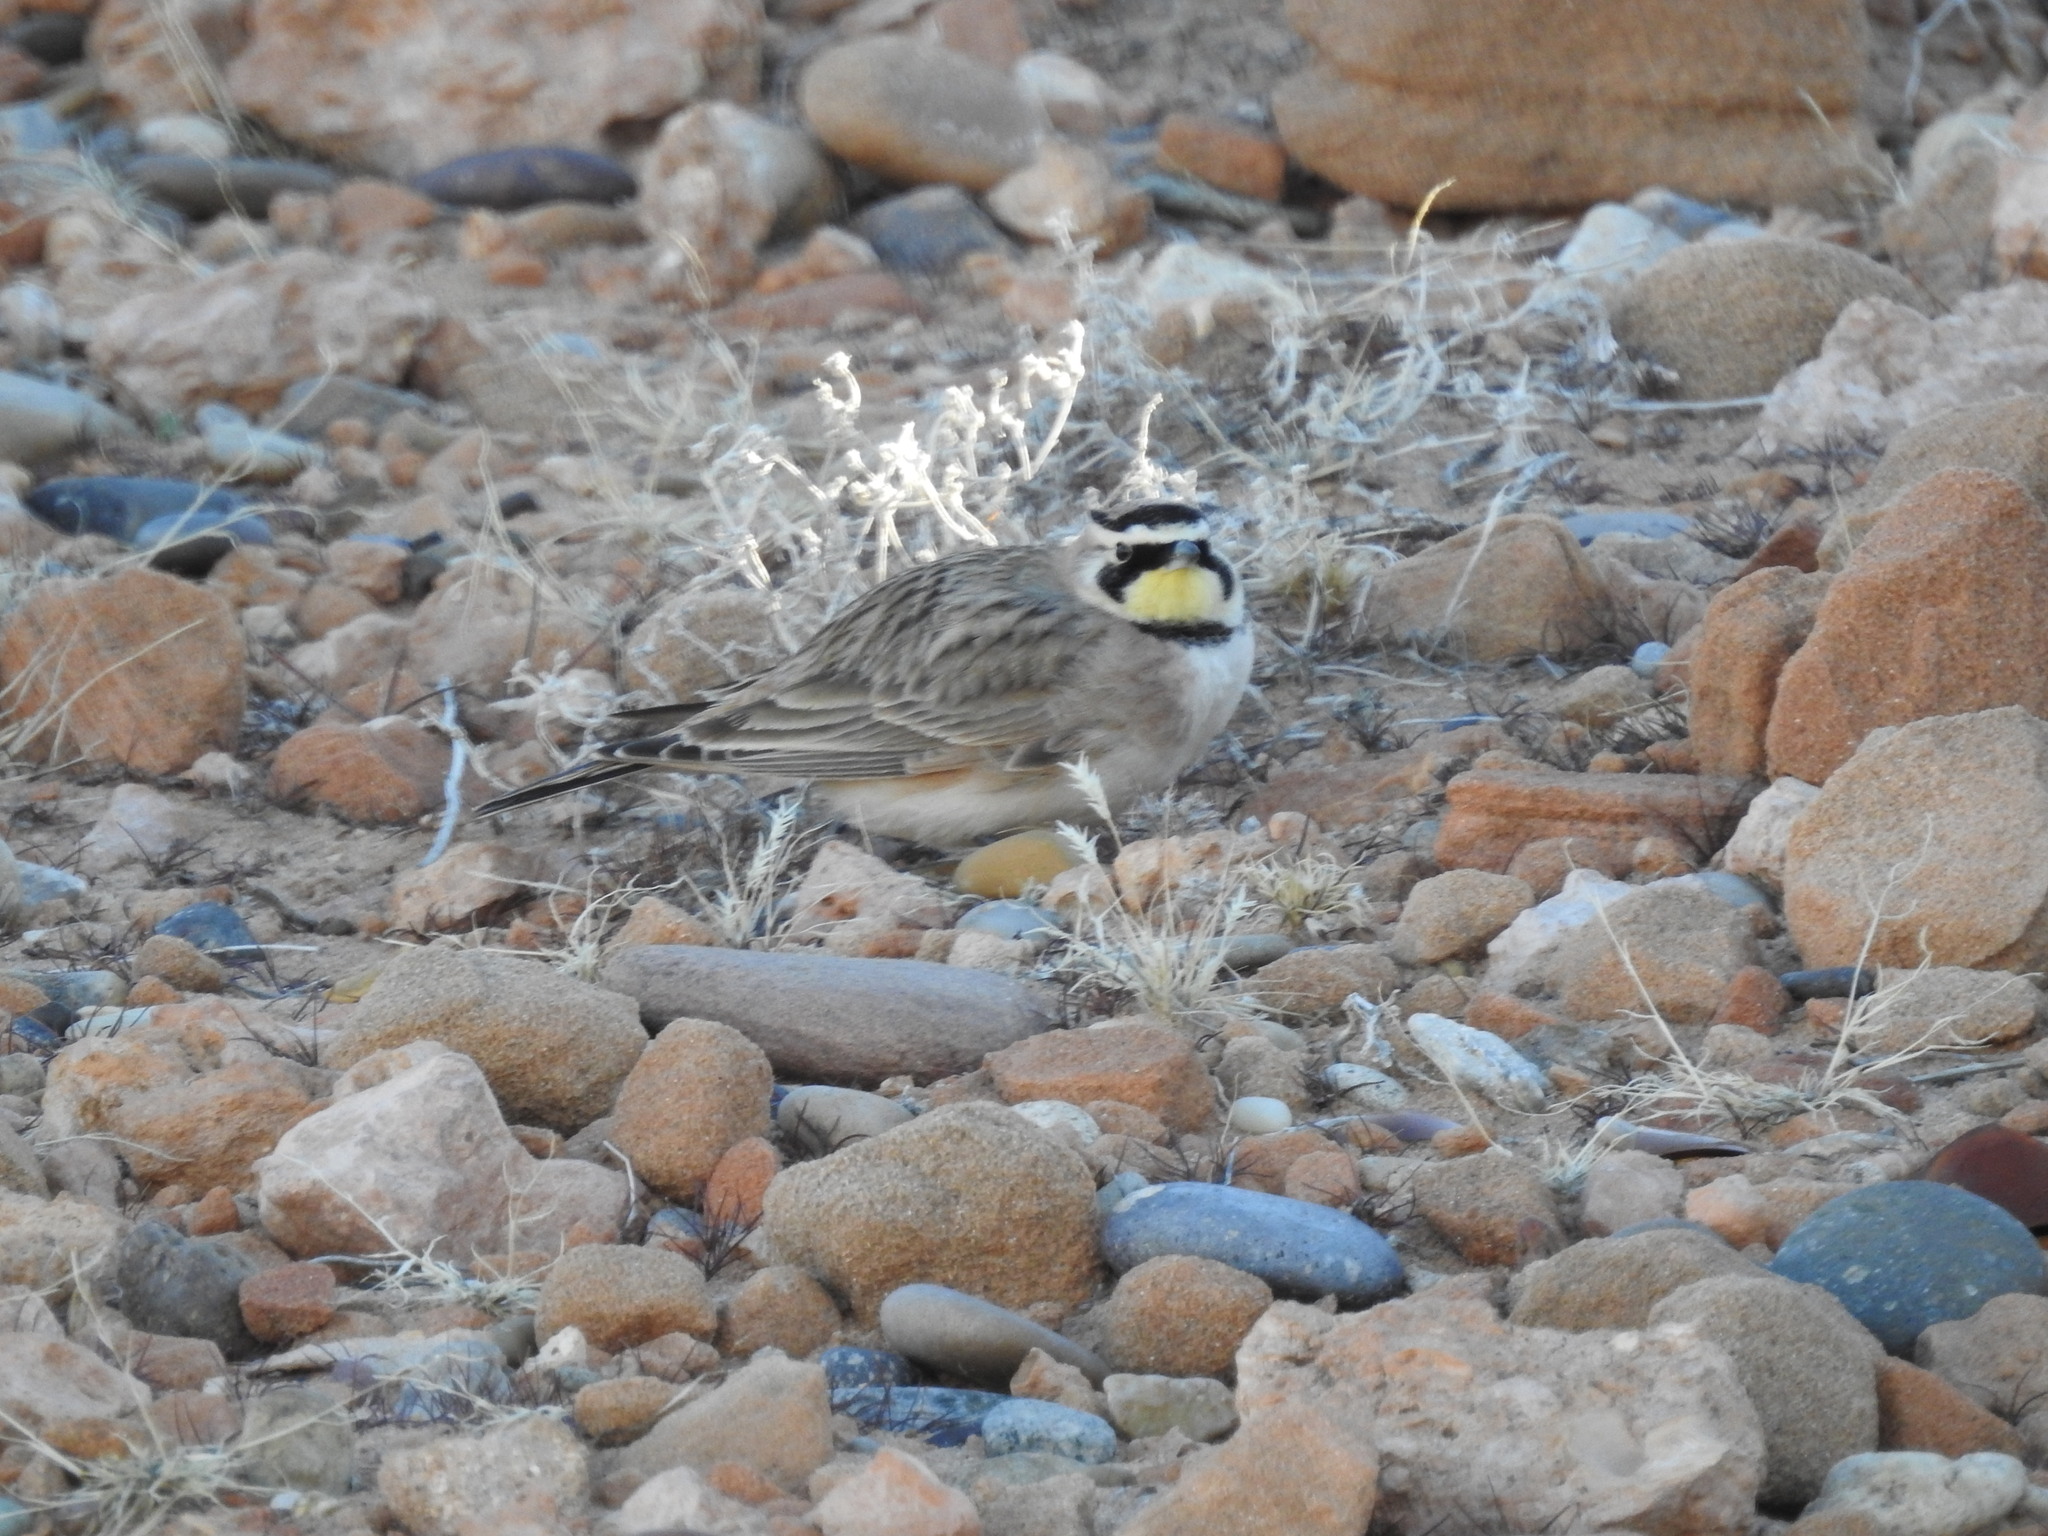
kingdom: Animalia
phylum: Chordata
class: Aves
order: Passeriformes
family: Alaudidae
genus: Eremophila
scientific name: Eremophila alpestris
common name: Horned lark
